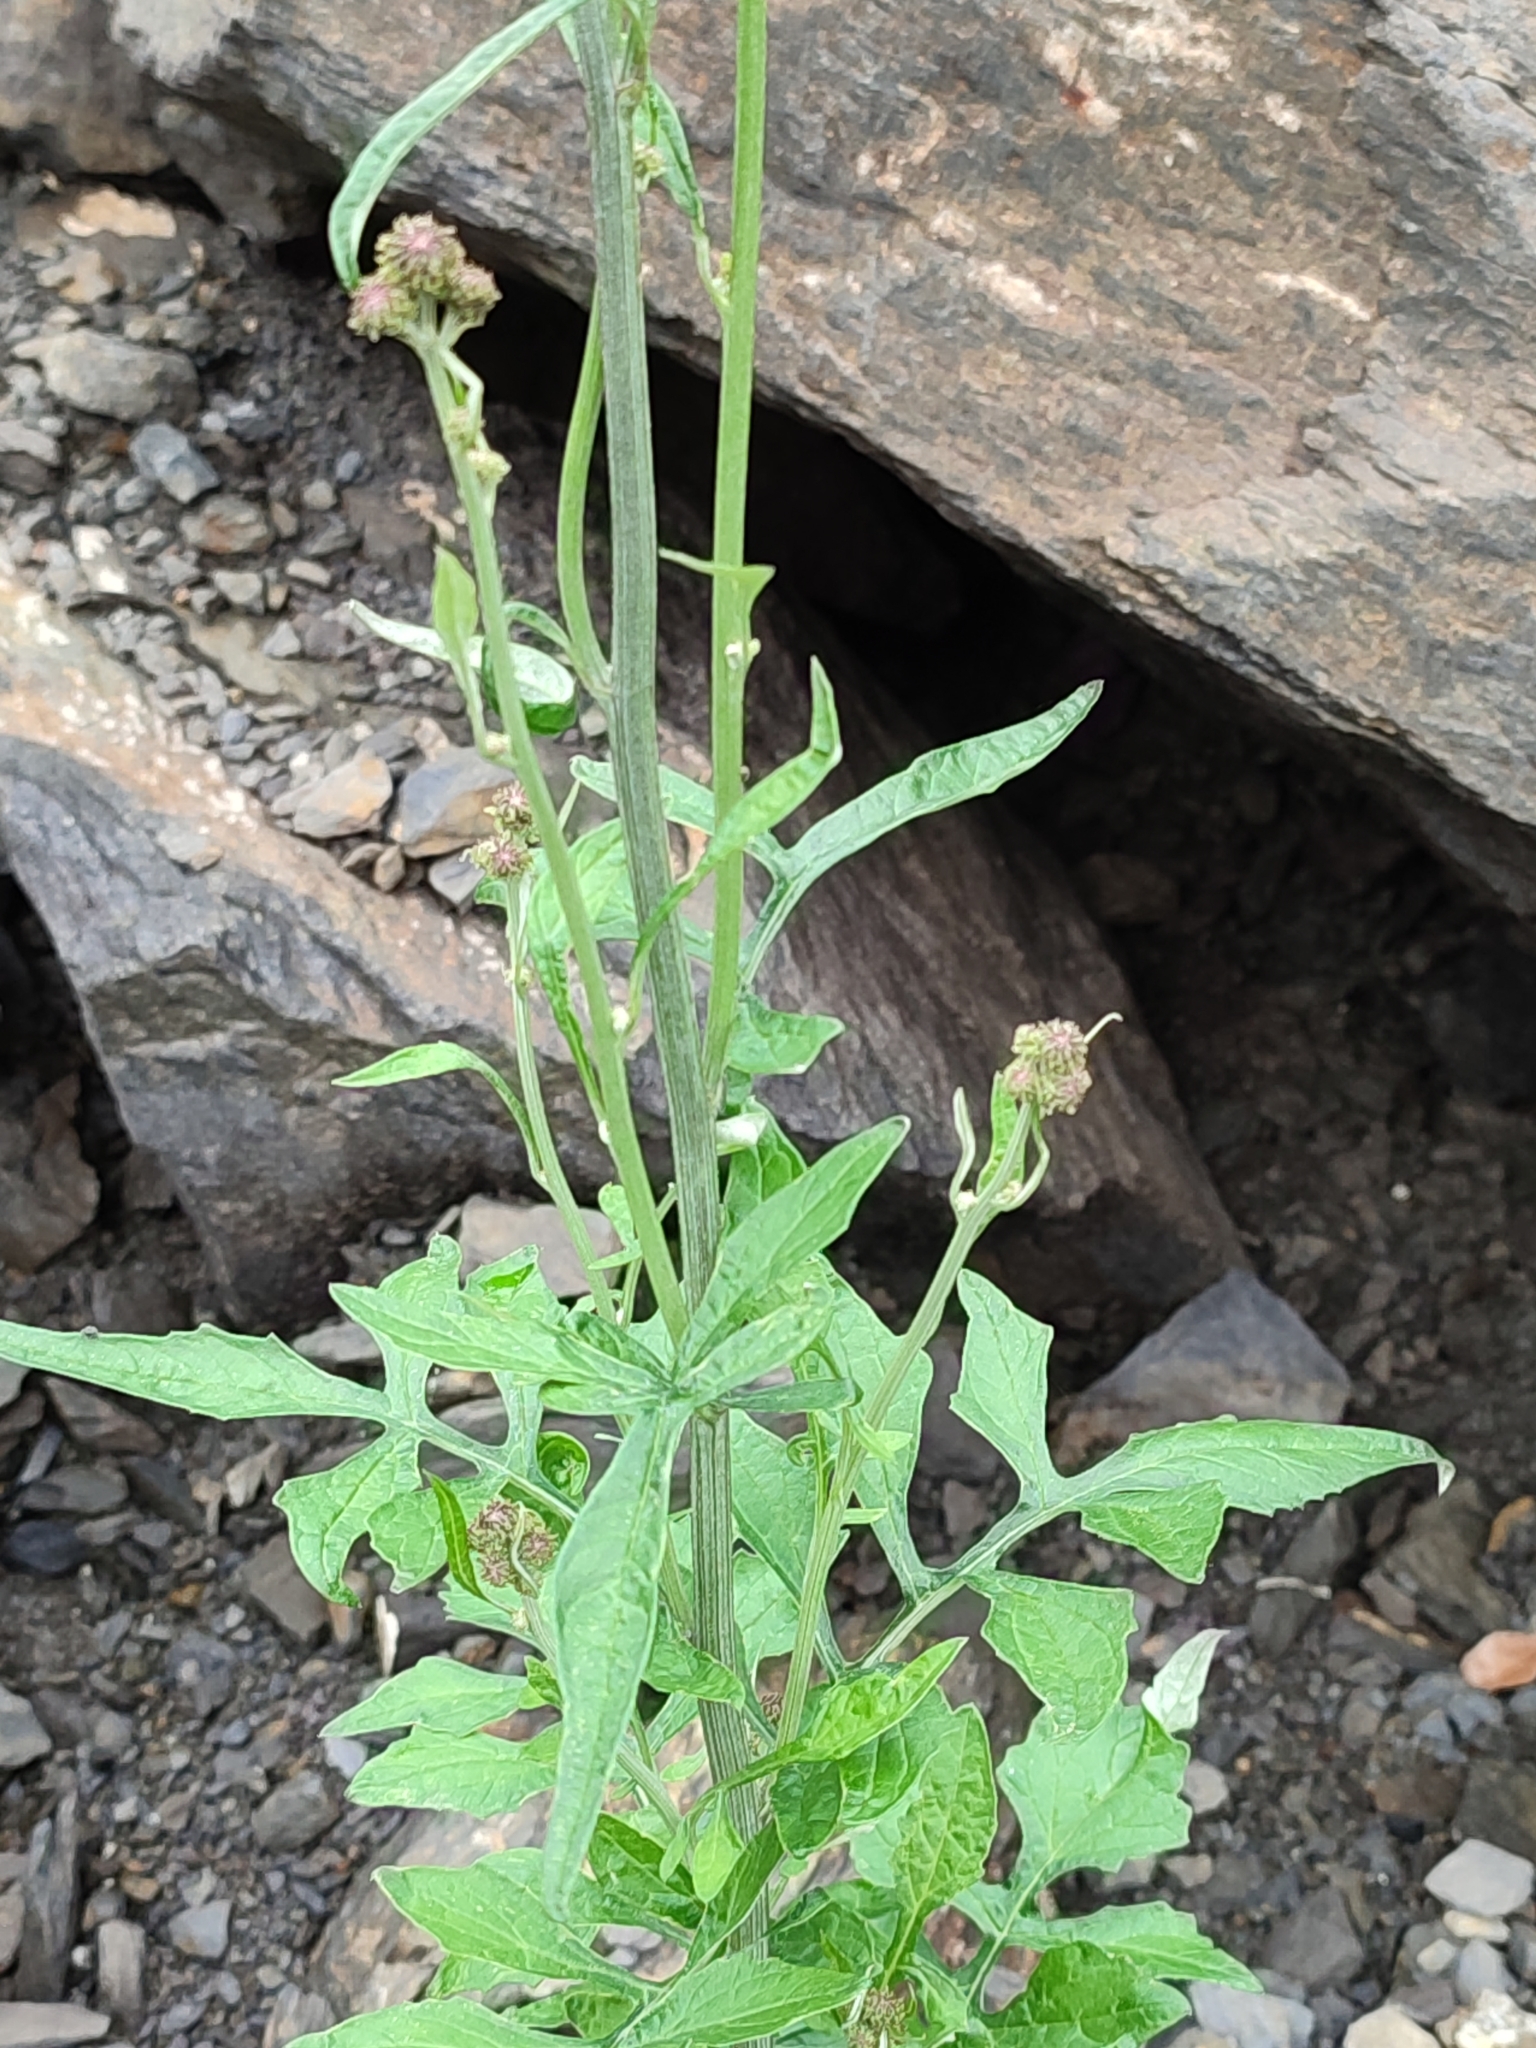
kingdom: Plantae
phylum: Tracheophyta
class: Magnoliopsida
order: Asterales
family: Asteraceae
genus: Saussurea
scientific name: Saussurea lyrata
